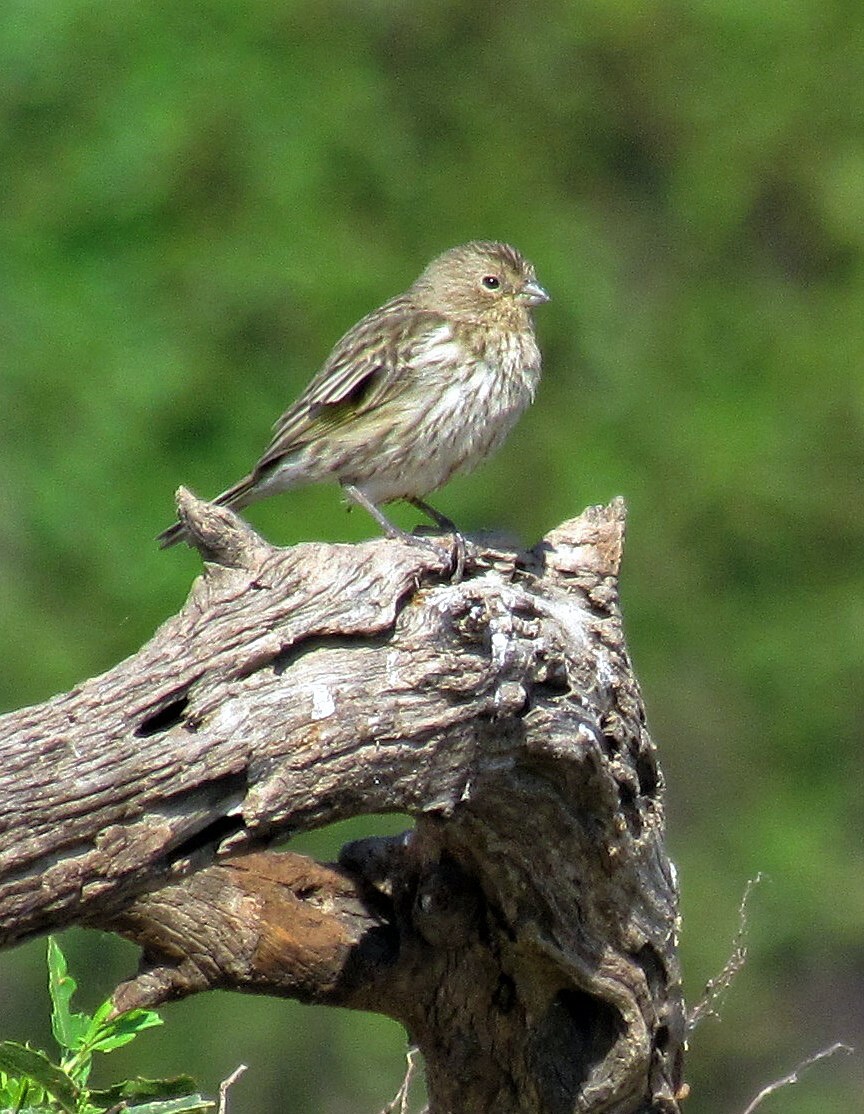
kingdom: Animalia
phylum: Chordata
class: Aves
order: Passeriformes
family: Thraupidae
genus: Sicalis
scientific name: Sicalis flaveola
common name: Saffron finch
